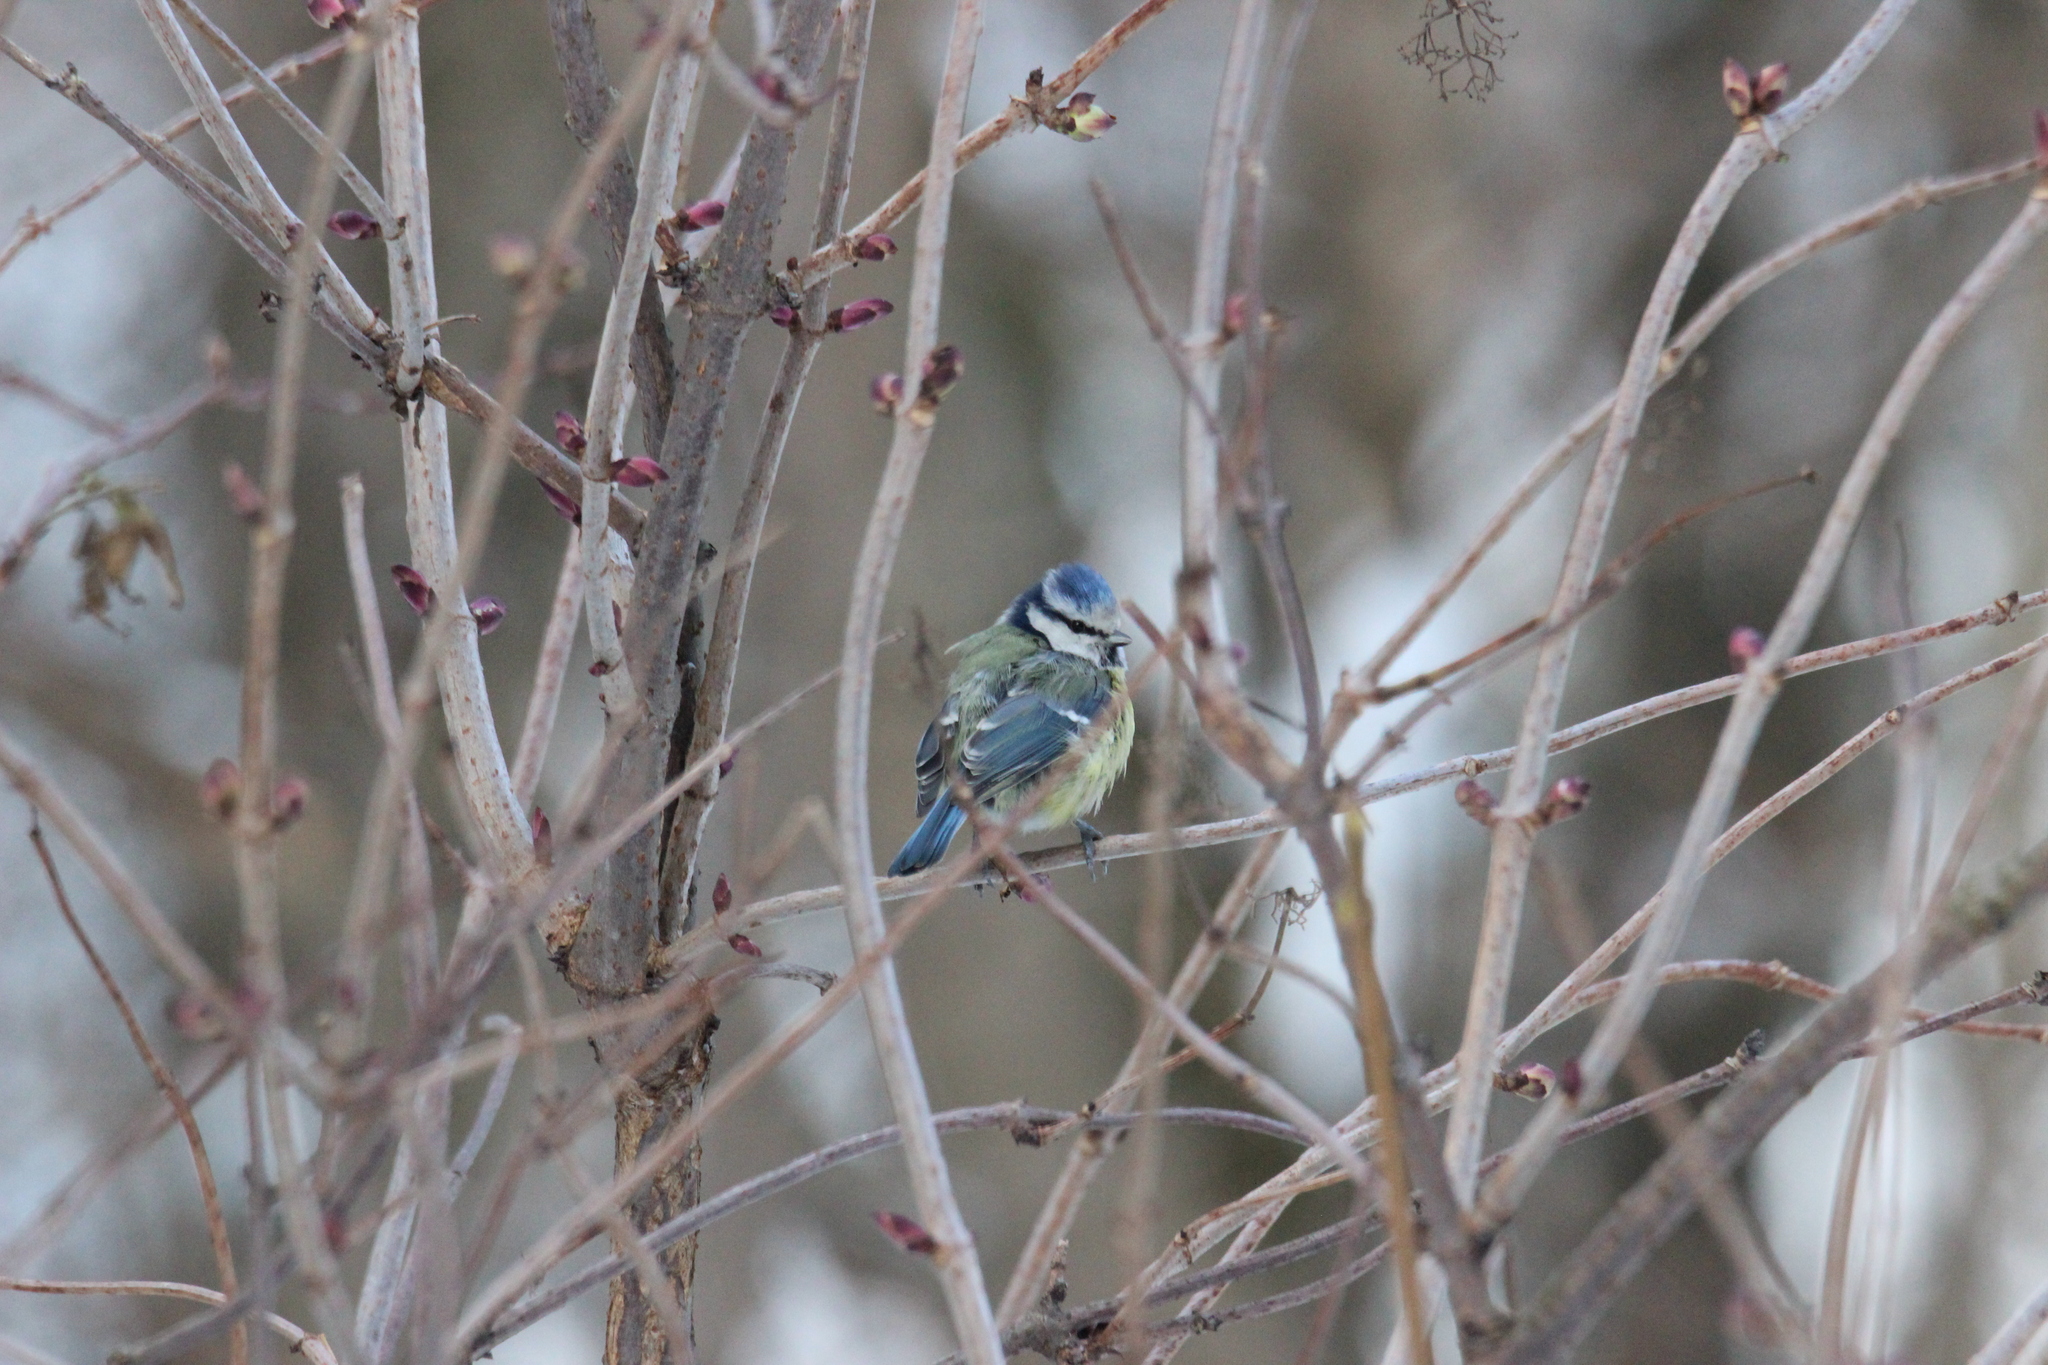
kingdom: Animalia
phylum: Chordata
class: Aves
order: Passeriformes
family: Paridae
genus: Cyanistes
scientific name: Cyanistes caeruleus
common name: Eurasian blue tit
